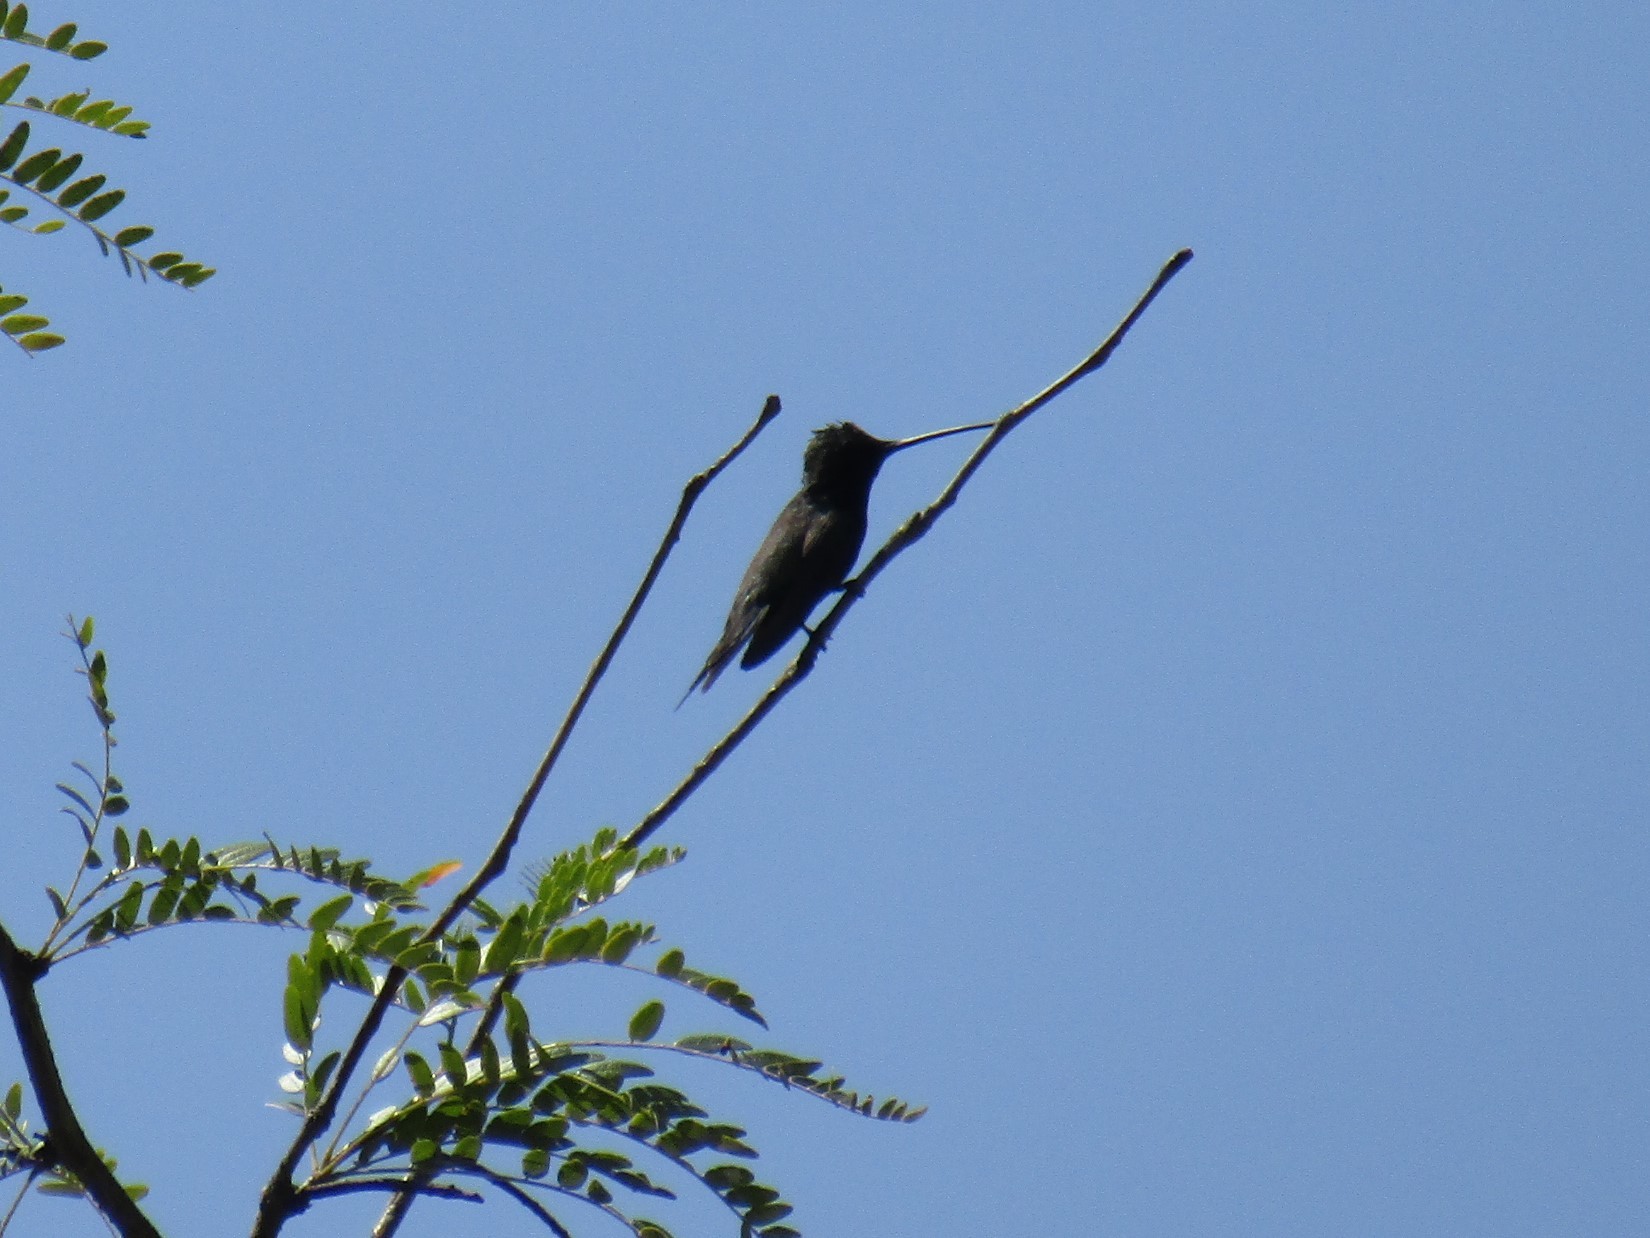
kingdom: Animalia
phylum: Chordata
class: Aves
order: Apodiformes
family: Trochilidae
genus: Heliomaster
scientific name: Heliomaster furcifer
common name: Blue-tufted starthroat
